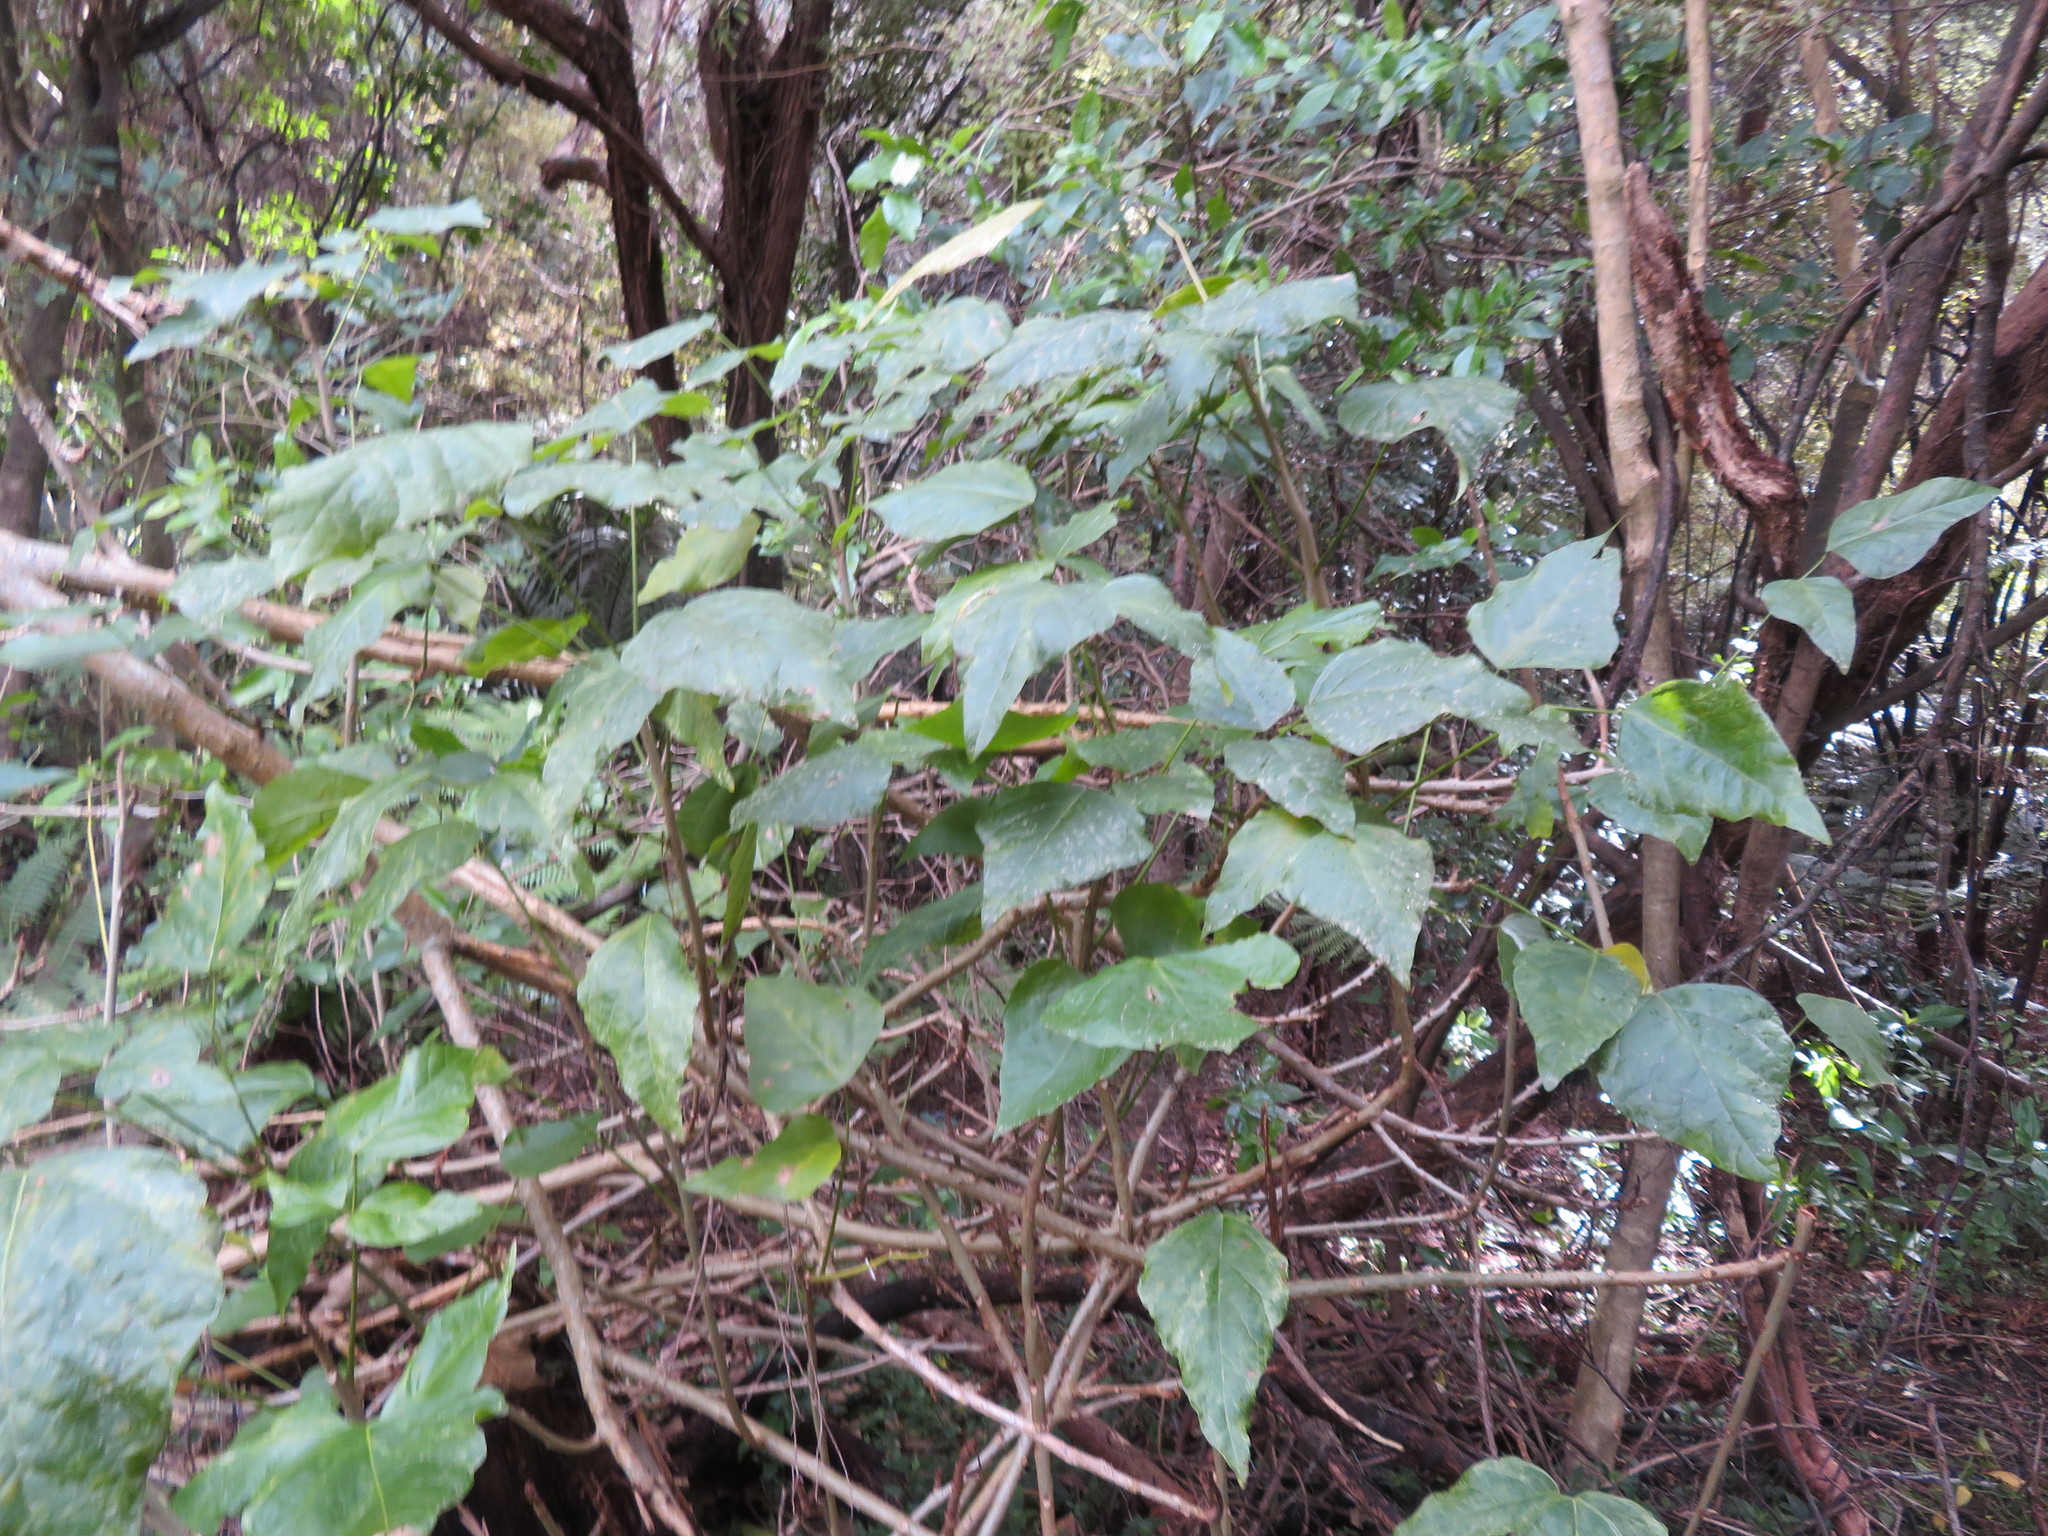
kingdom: Plantae
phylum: Tracheophyta
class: Magnoliopsida
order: Fabales
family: Fabaceae
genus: Erythrina
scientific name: Erythrina sykesii
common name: Coraltree
